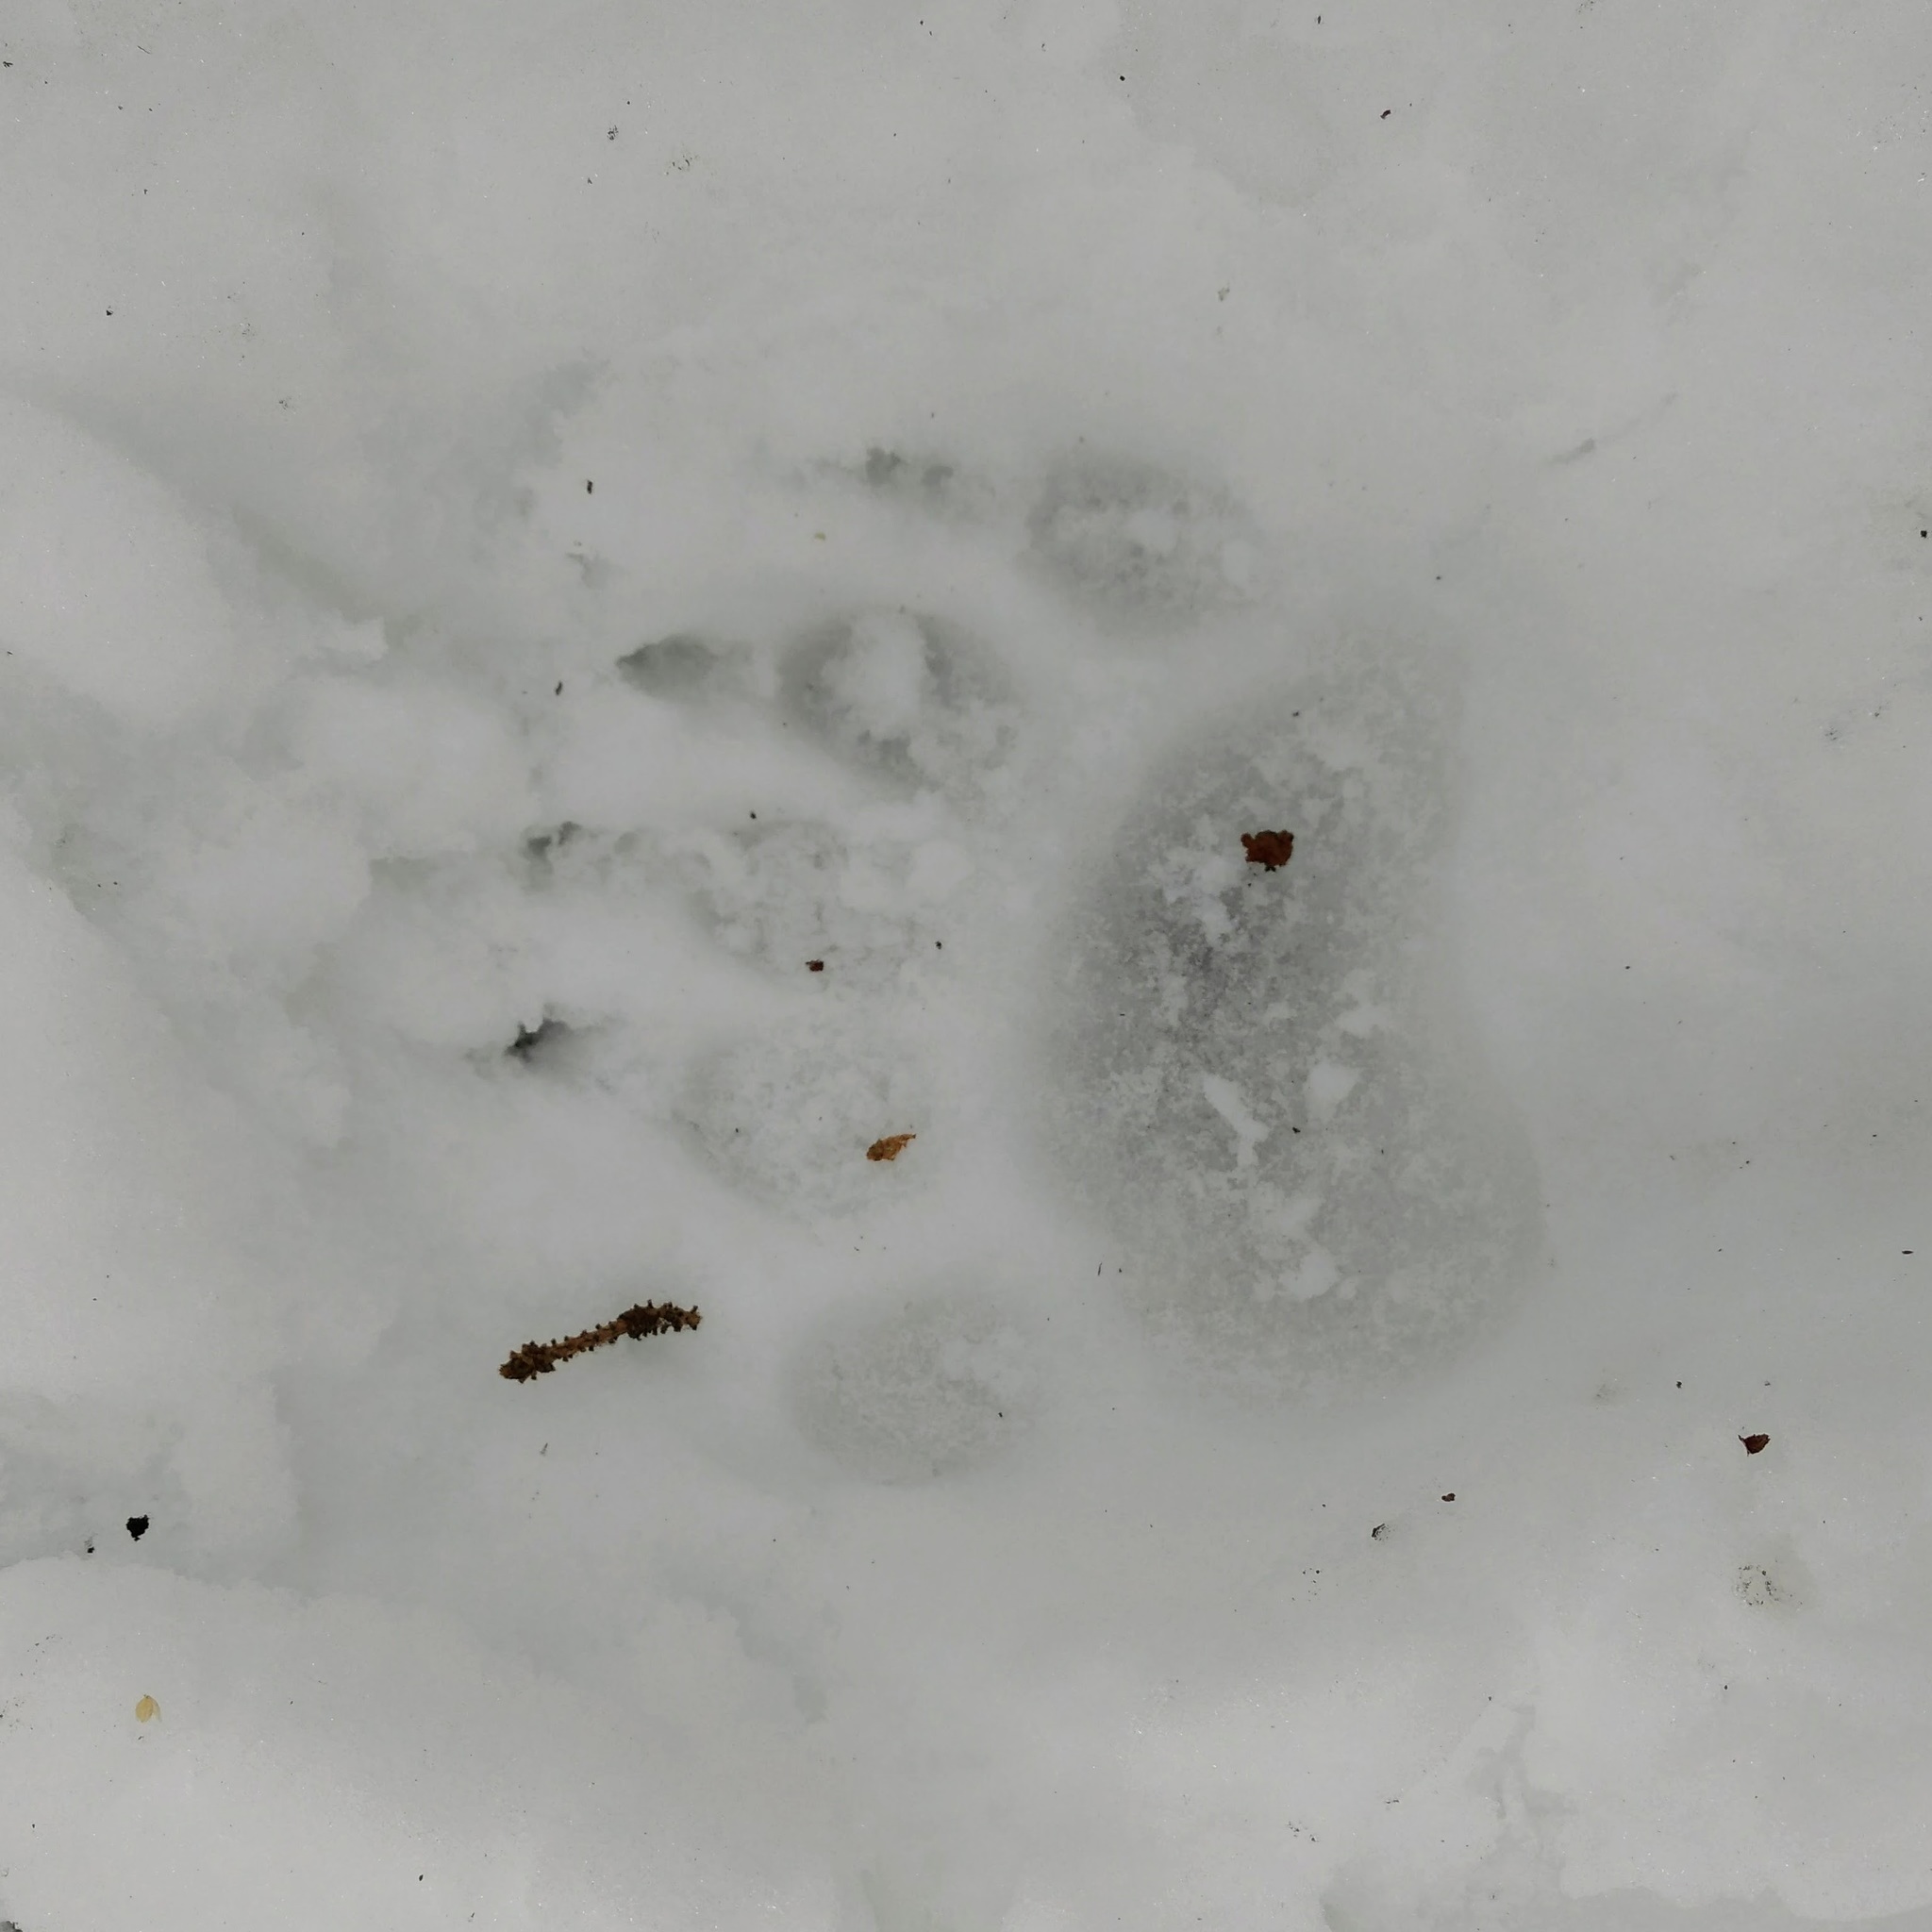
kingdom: Animalia
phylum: Chordata
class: Mammalia
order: Carnivora
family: Ursidae
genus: Ursus
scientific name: Ursus americanus
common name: American black bear
